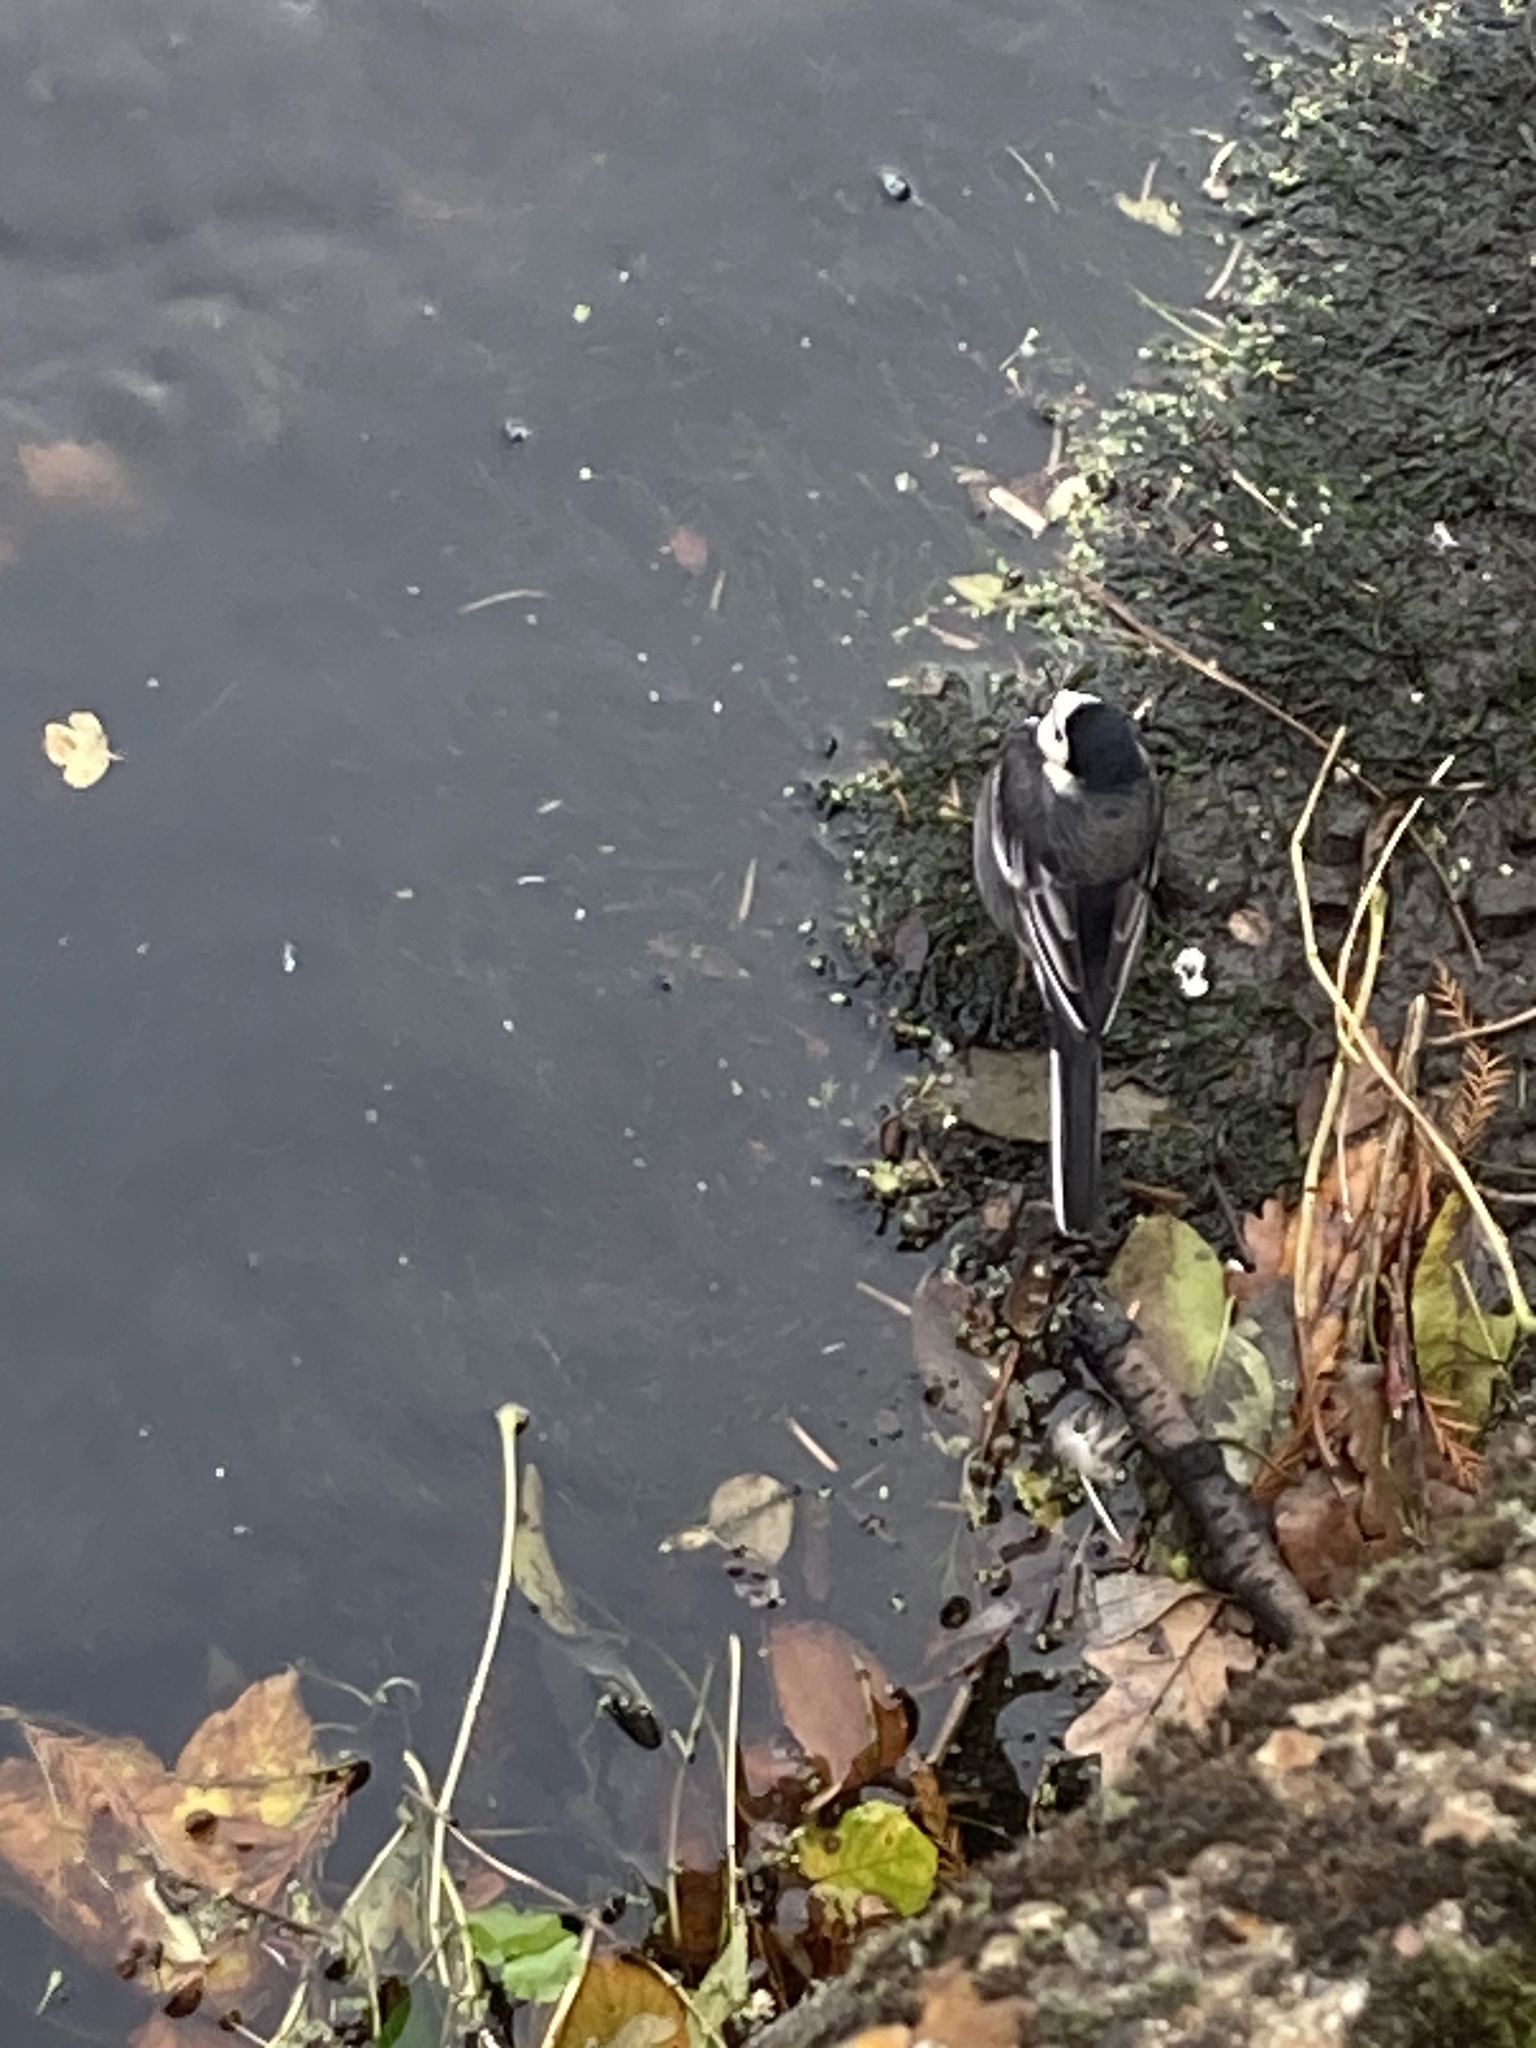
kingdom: Animalia
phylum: Chordata
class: Aves
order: Passeriformes
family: Motacillidae
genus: Motacilla
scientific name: Motacilla alba
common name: White wagtail
